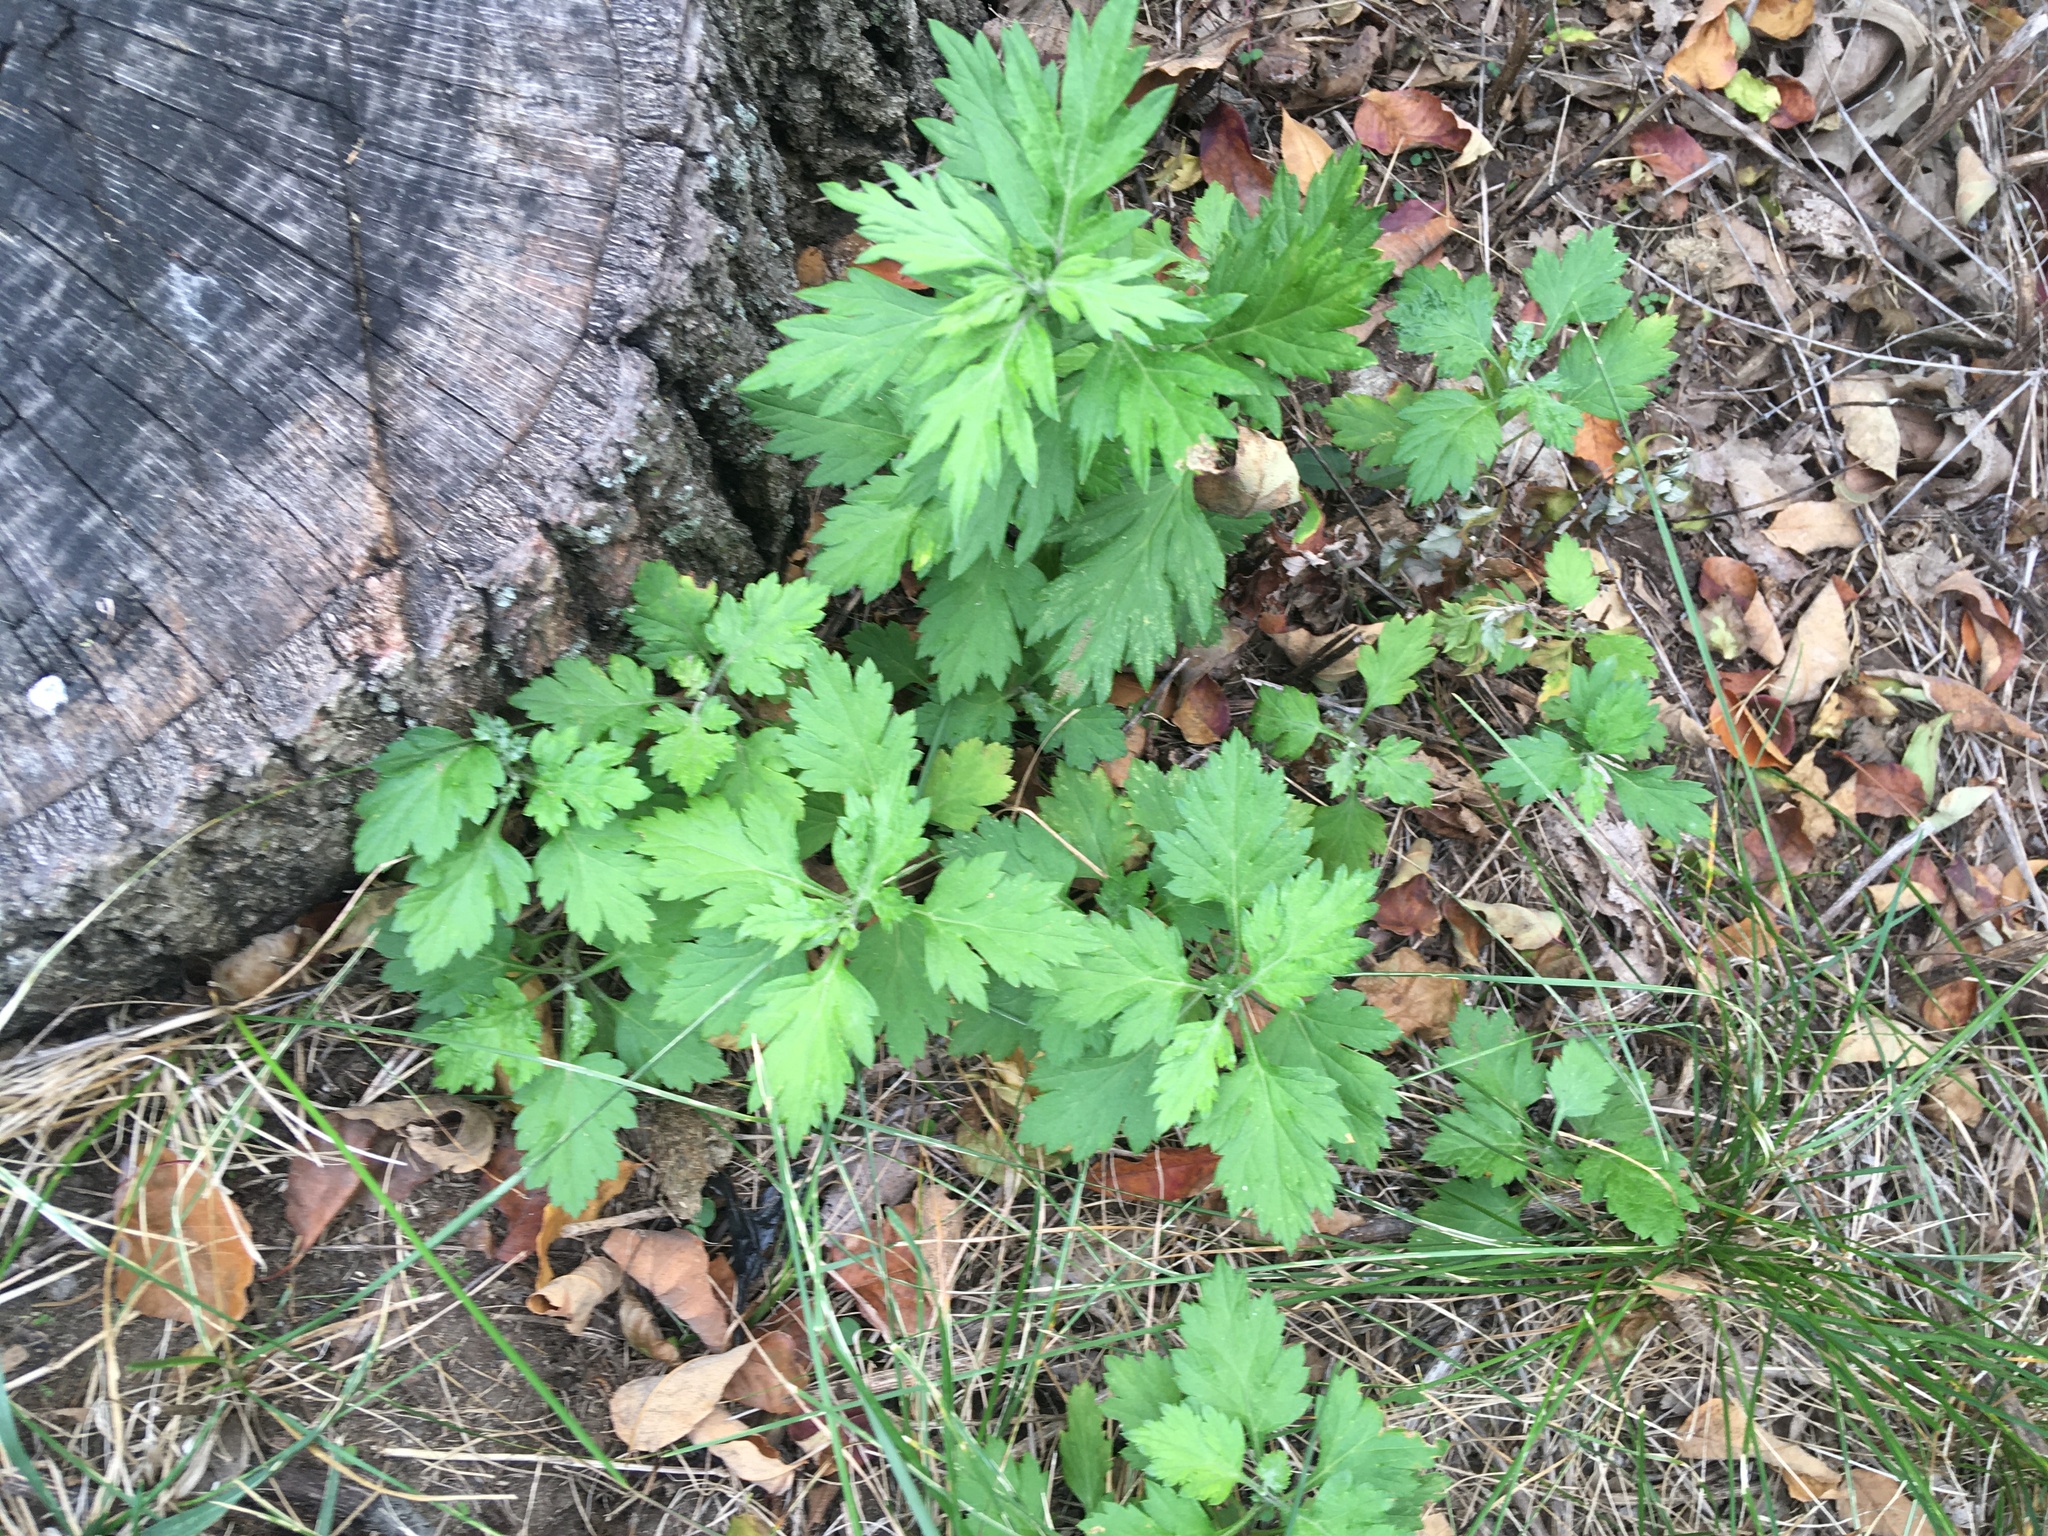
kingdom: Plantae
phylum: Tracheophyta
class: Magnoliopsida
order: Asterales
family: Asteraceae
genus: Artemisia
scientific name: Artemisia vulgaris
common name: Mugwort
